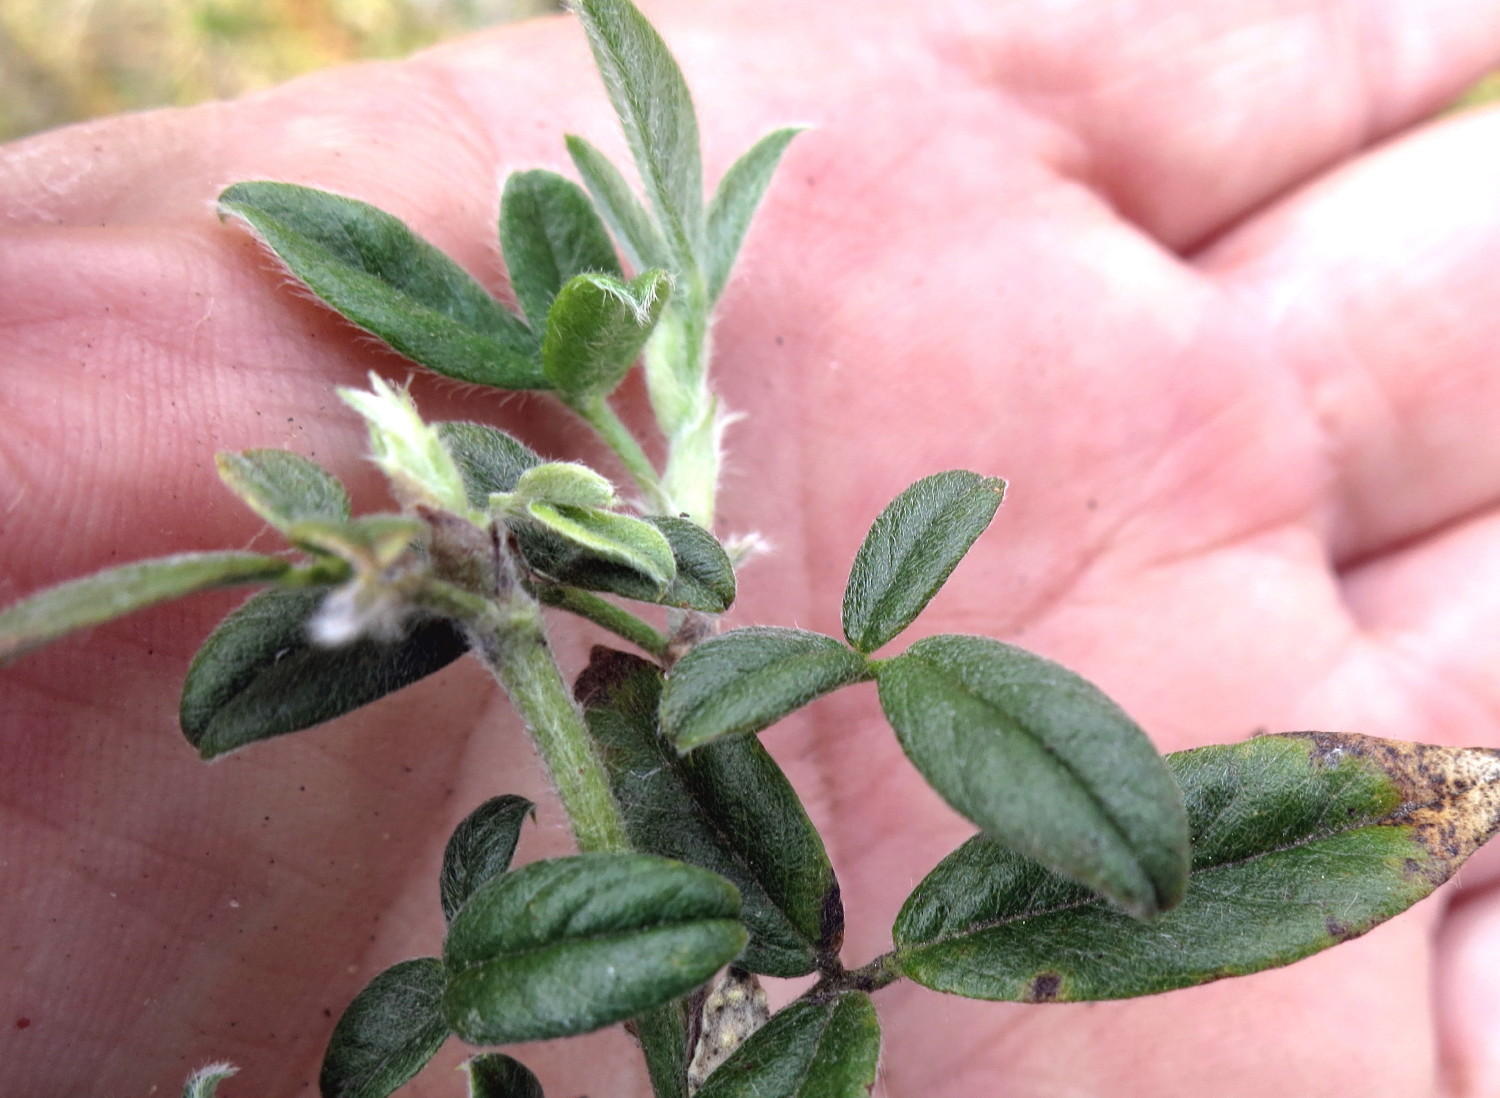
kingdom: Plantae
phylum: Tracheophyta
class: Magnoliopsida
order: Fabales
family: Fabaceae
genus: Psoralea
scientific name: Psoralea swartbergensis
